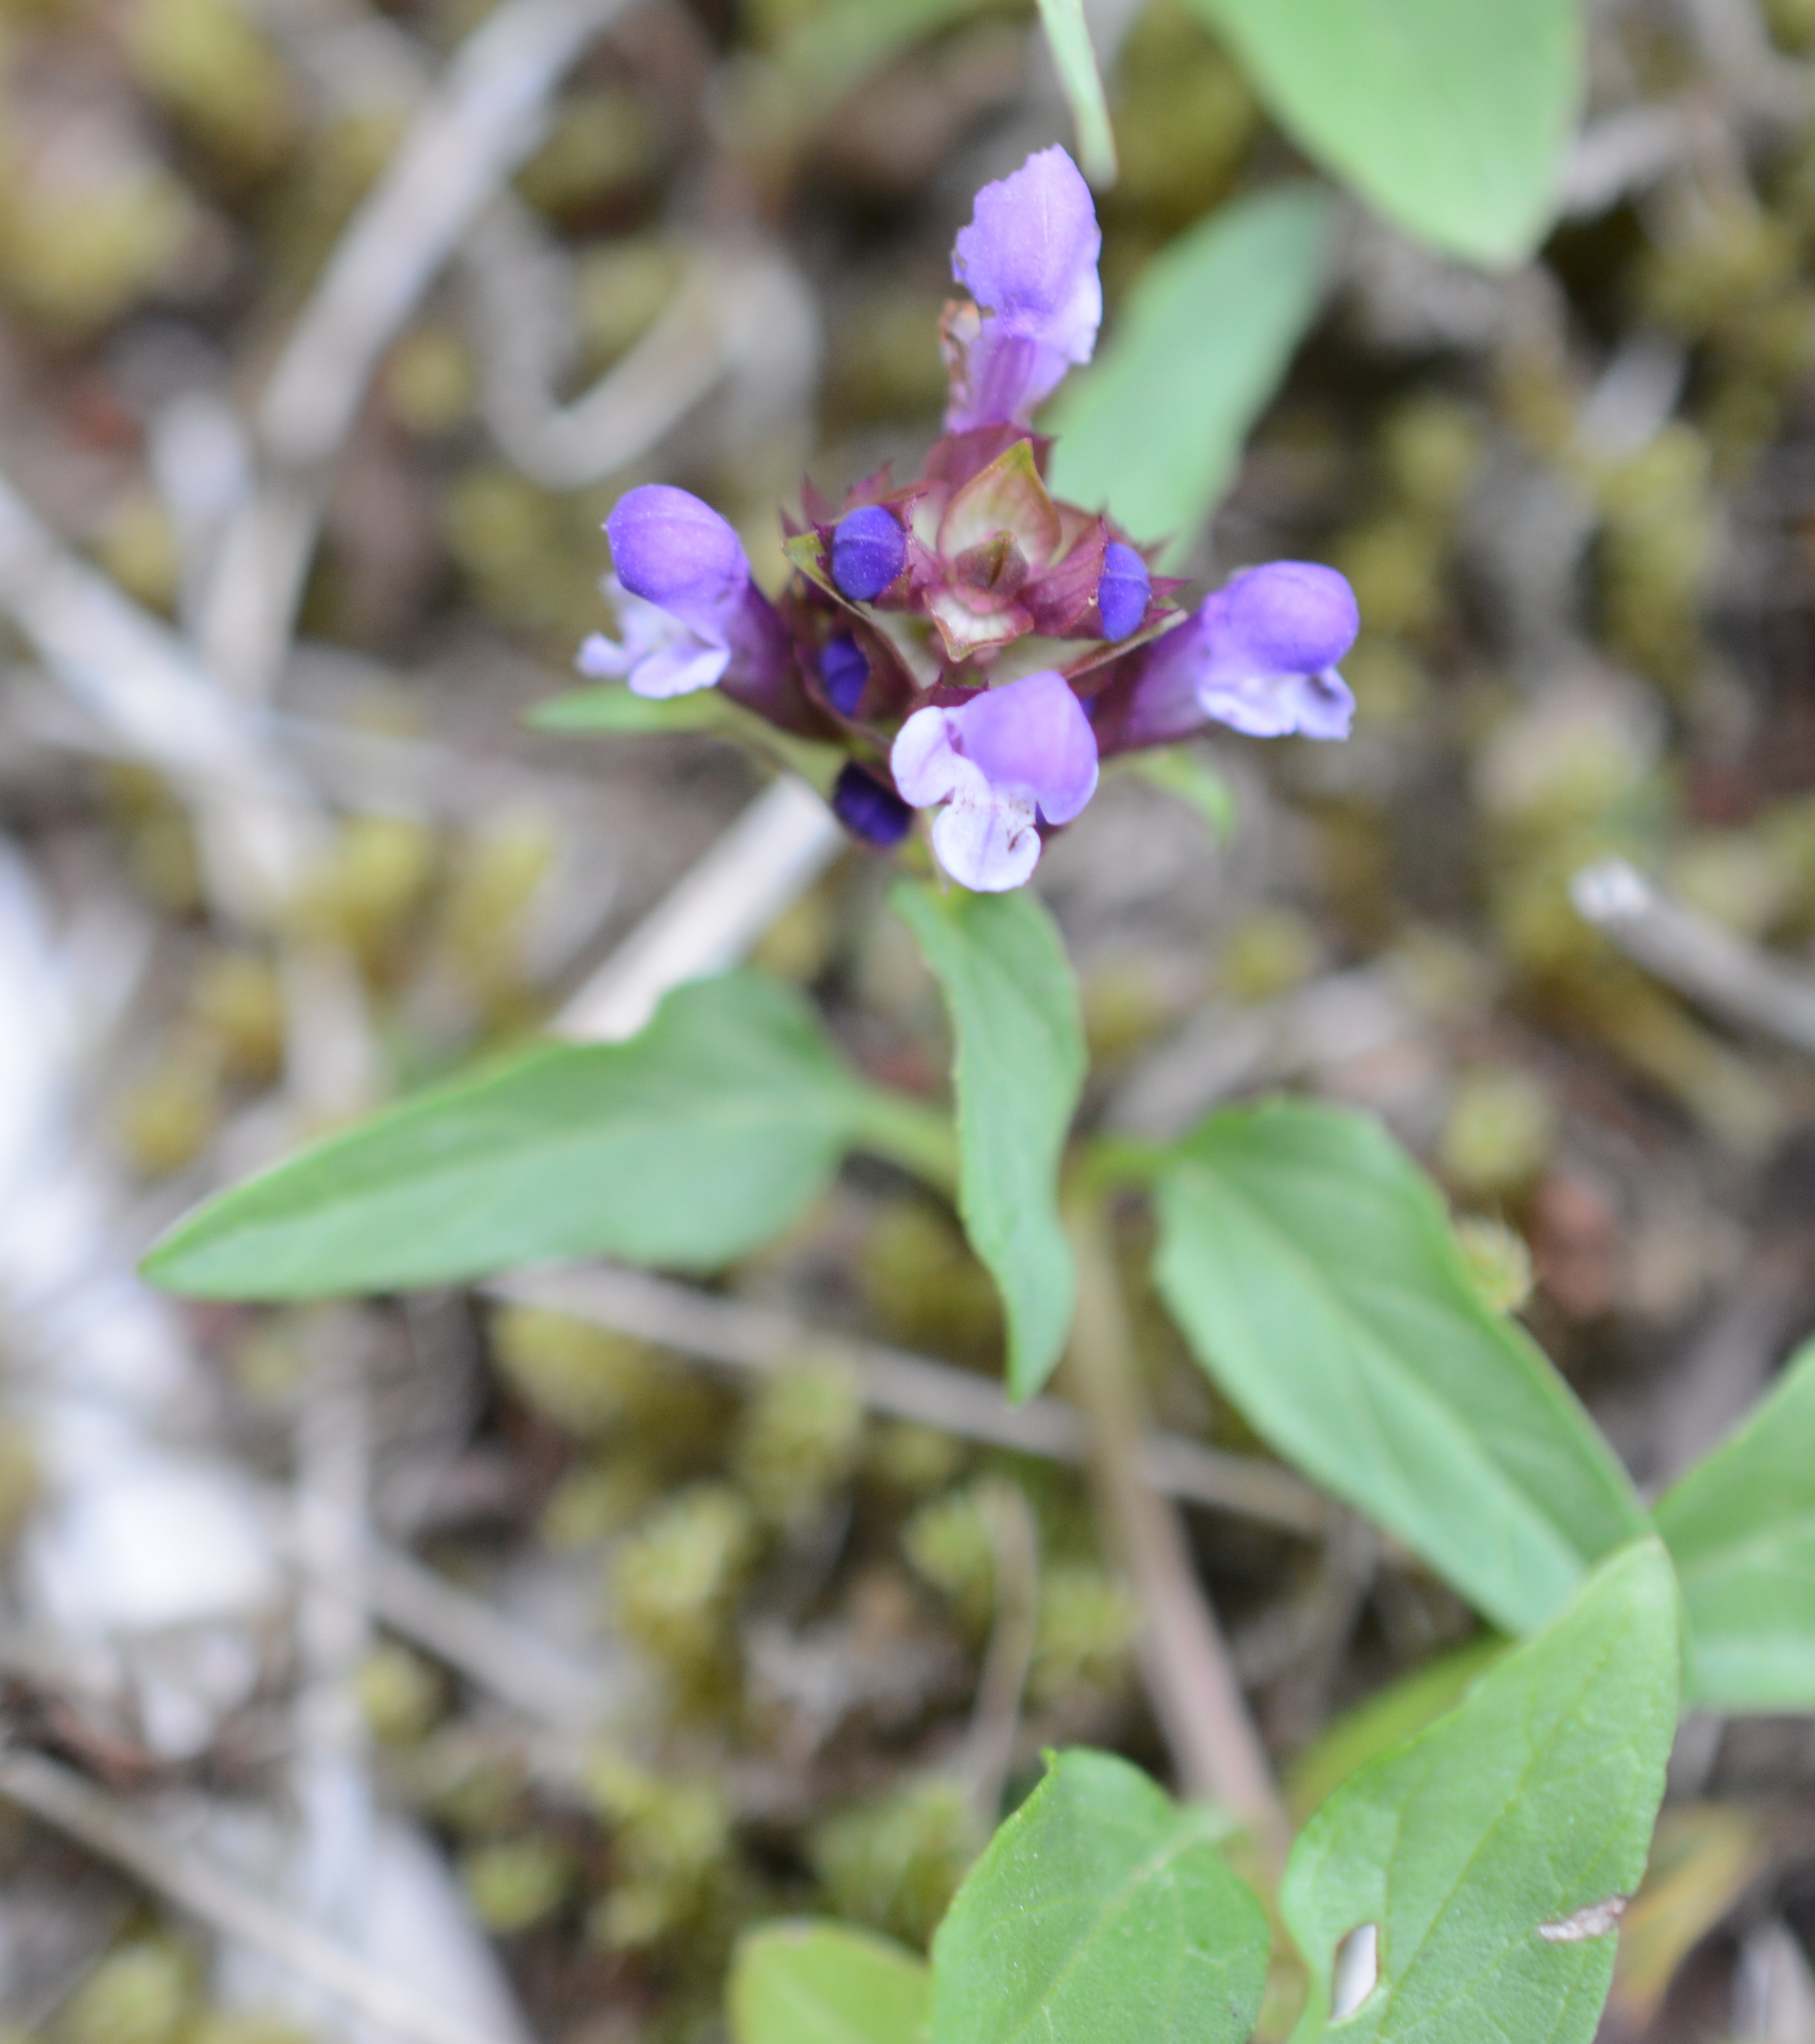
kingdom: Plantae
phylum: Tracheophyta
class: Magnoliopsida
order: Lamiales
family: Lamiaceae
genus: Prunella
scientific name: Prunella vulgaris
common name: Heal-all
